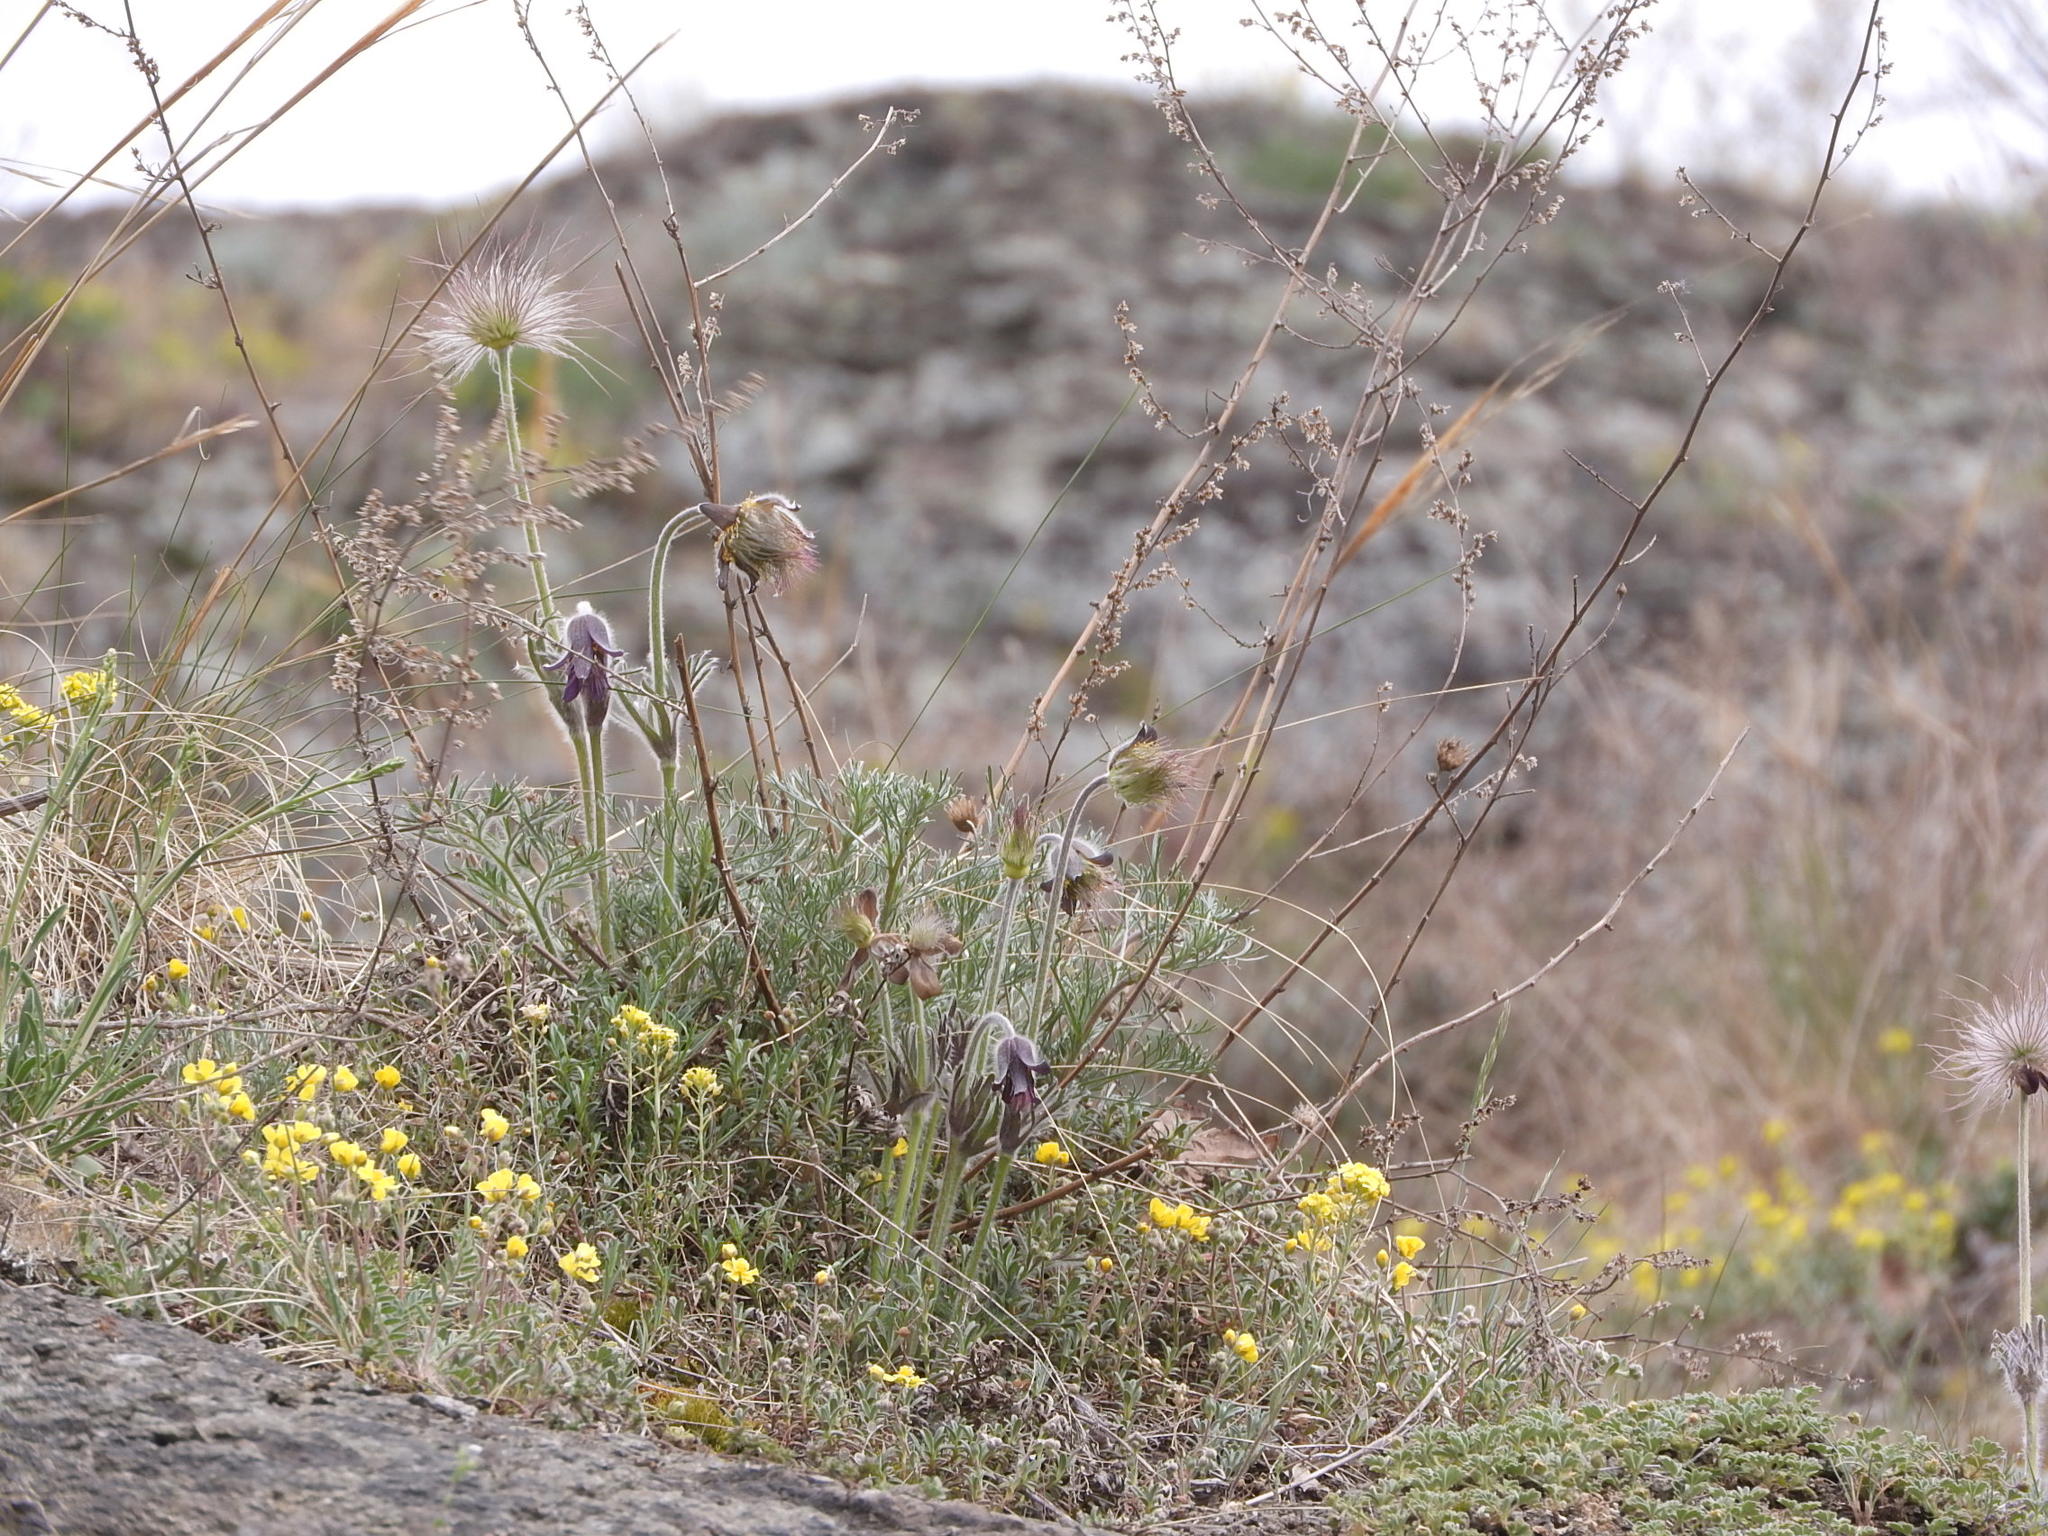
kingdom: Plantae
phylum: Tracheophyta
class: Magnoliopsida
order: Ranunculales
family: Ranunculaceae
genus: Pulsatilla
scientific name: Pulsatilla pratensis
